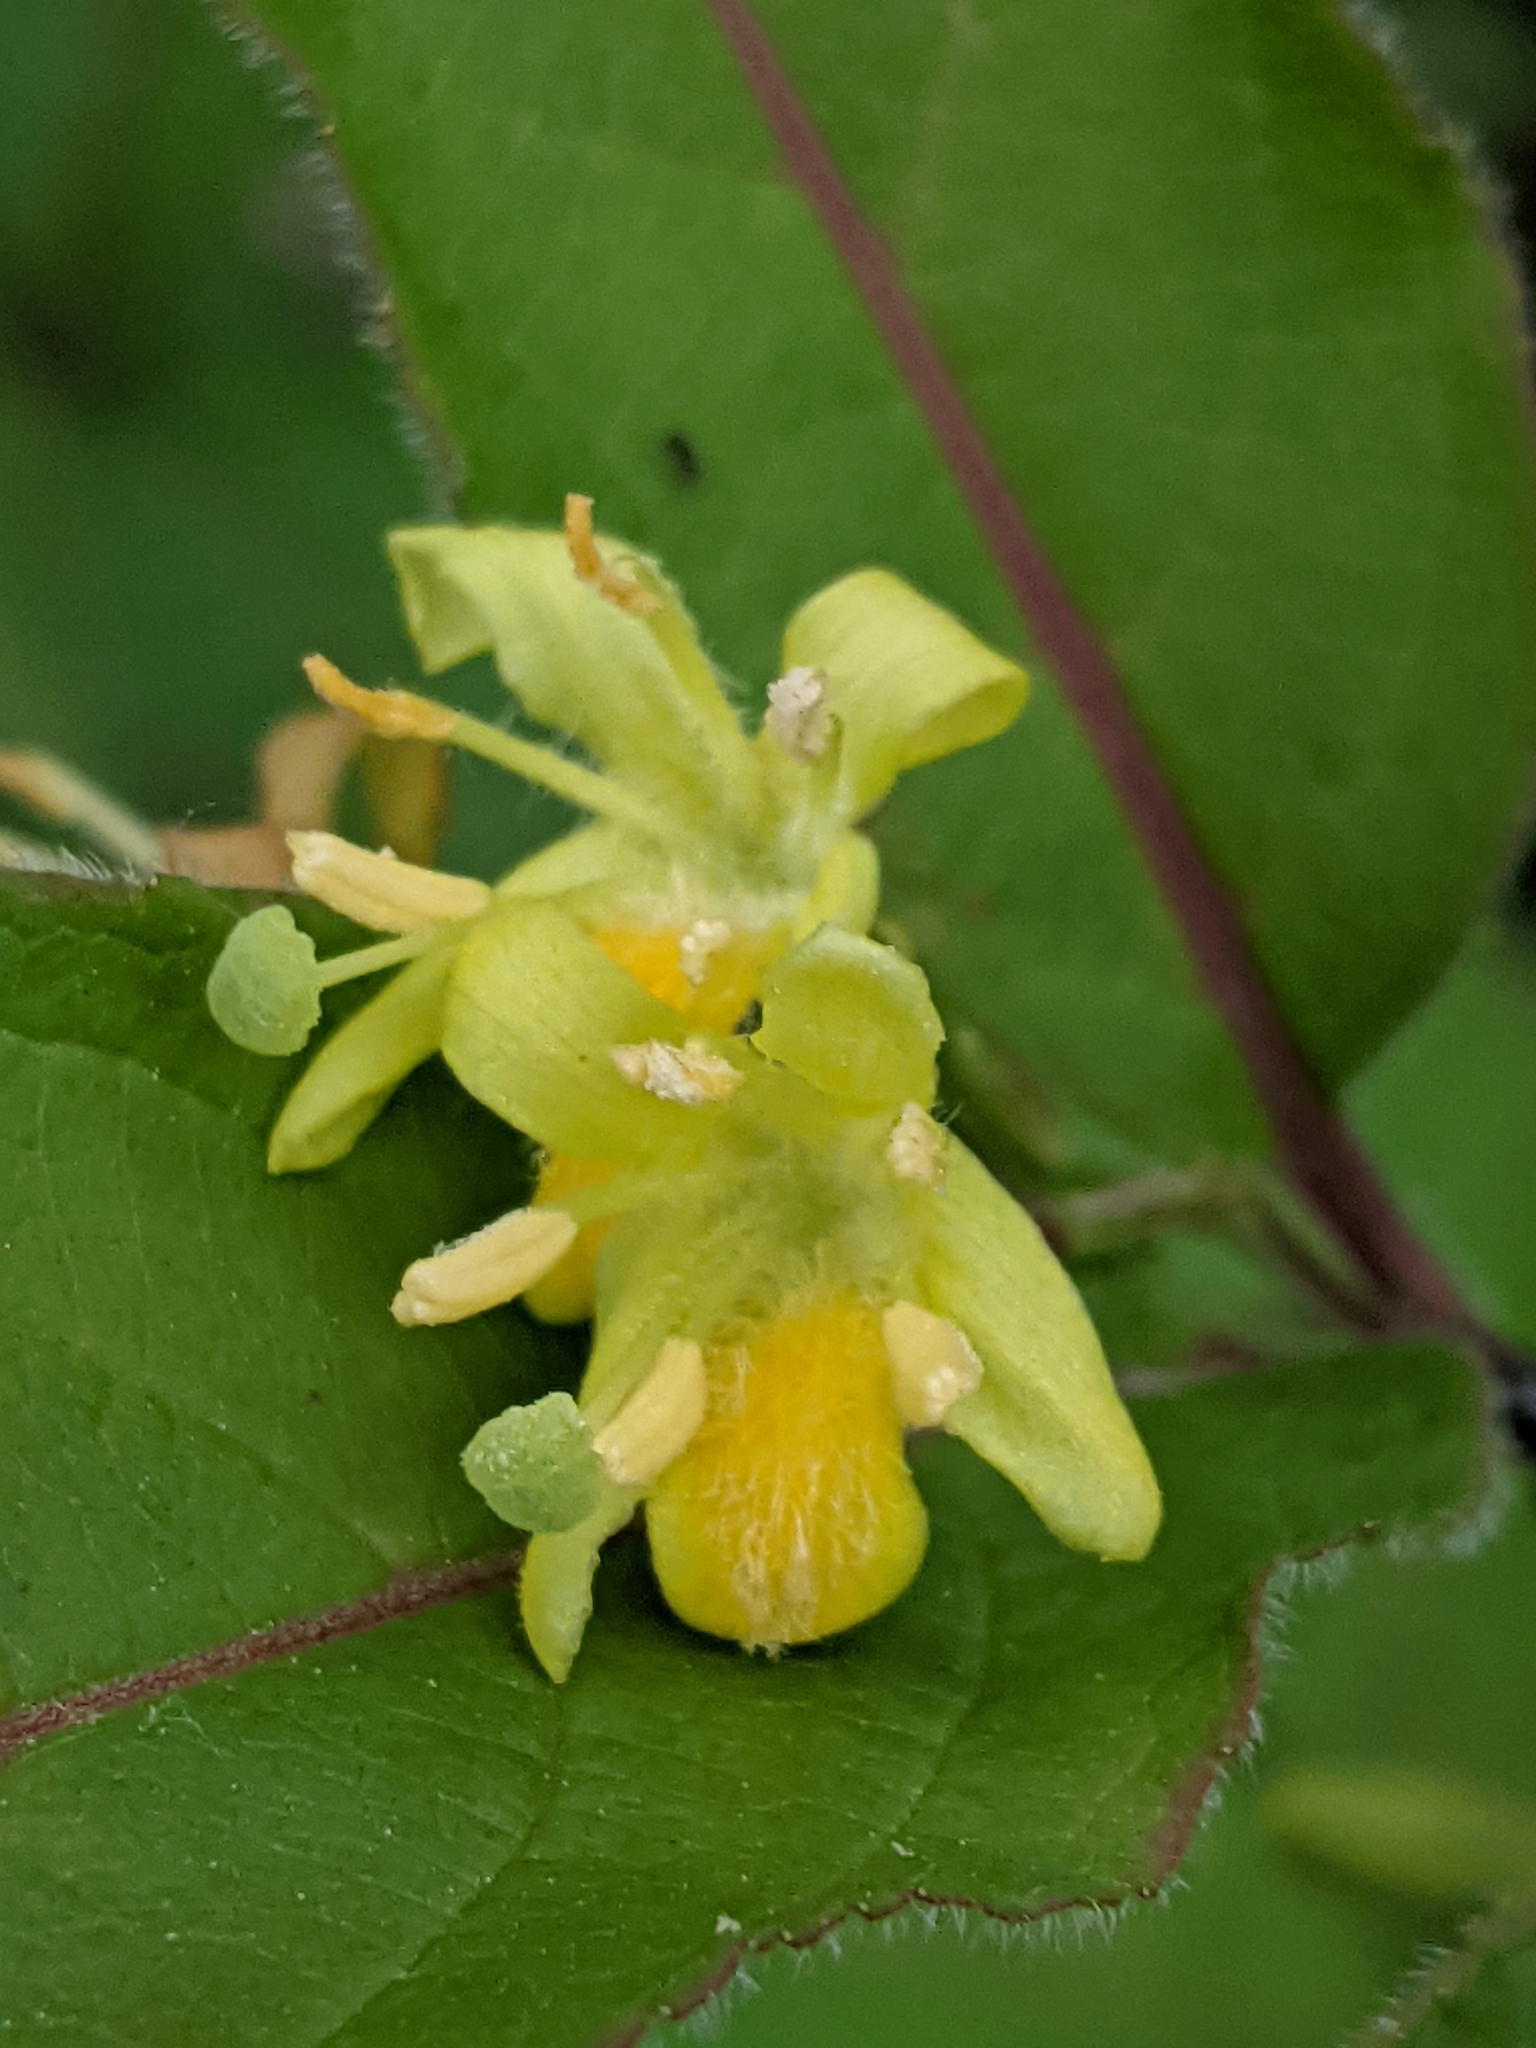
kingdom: Plantae
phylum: Tracheophyta
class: Magnoliopsida
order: Dipsacales
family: Caprifoliaceae
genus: Diervilla
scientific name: Diervilla lonicera
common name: Bush-honeysuckle
